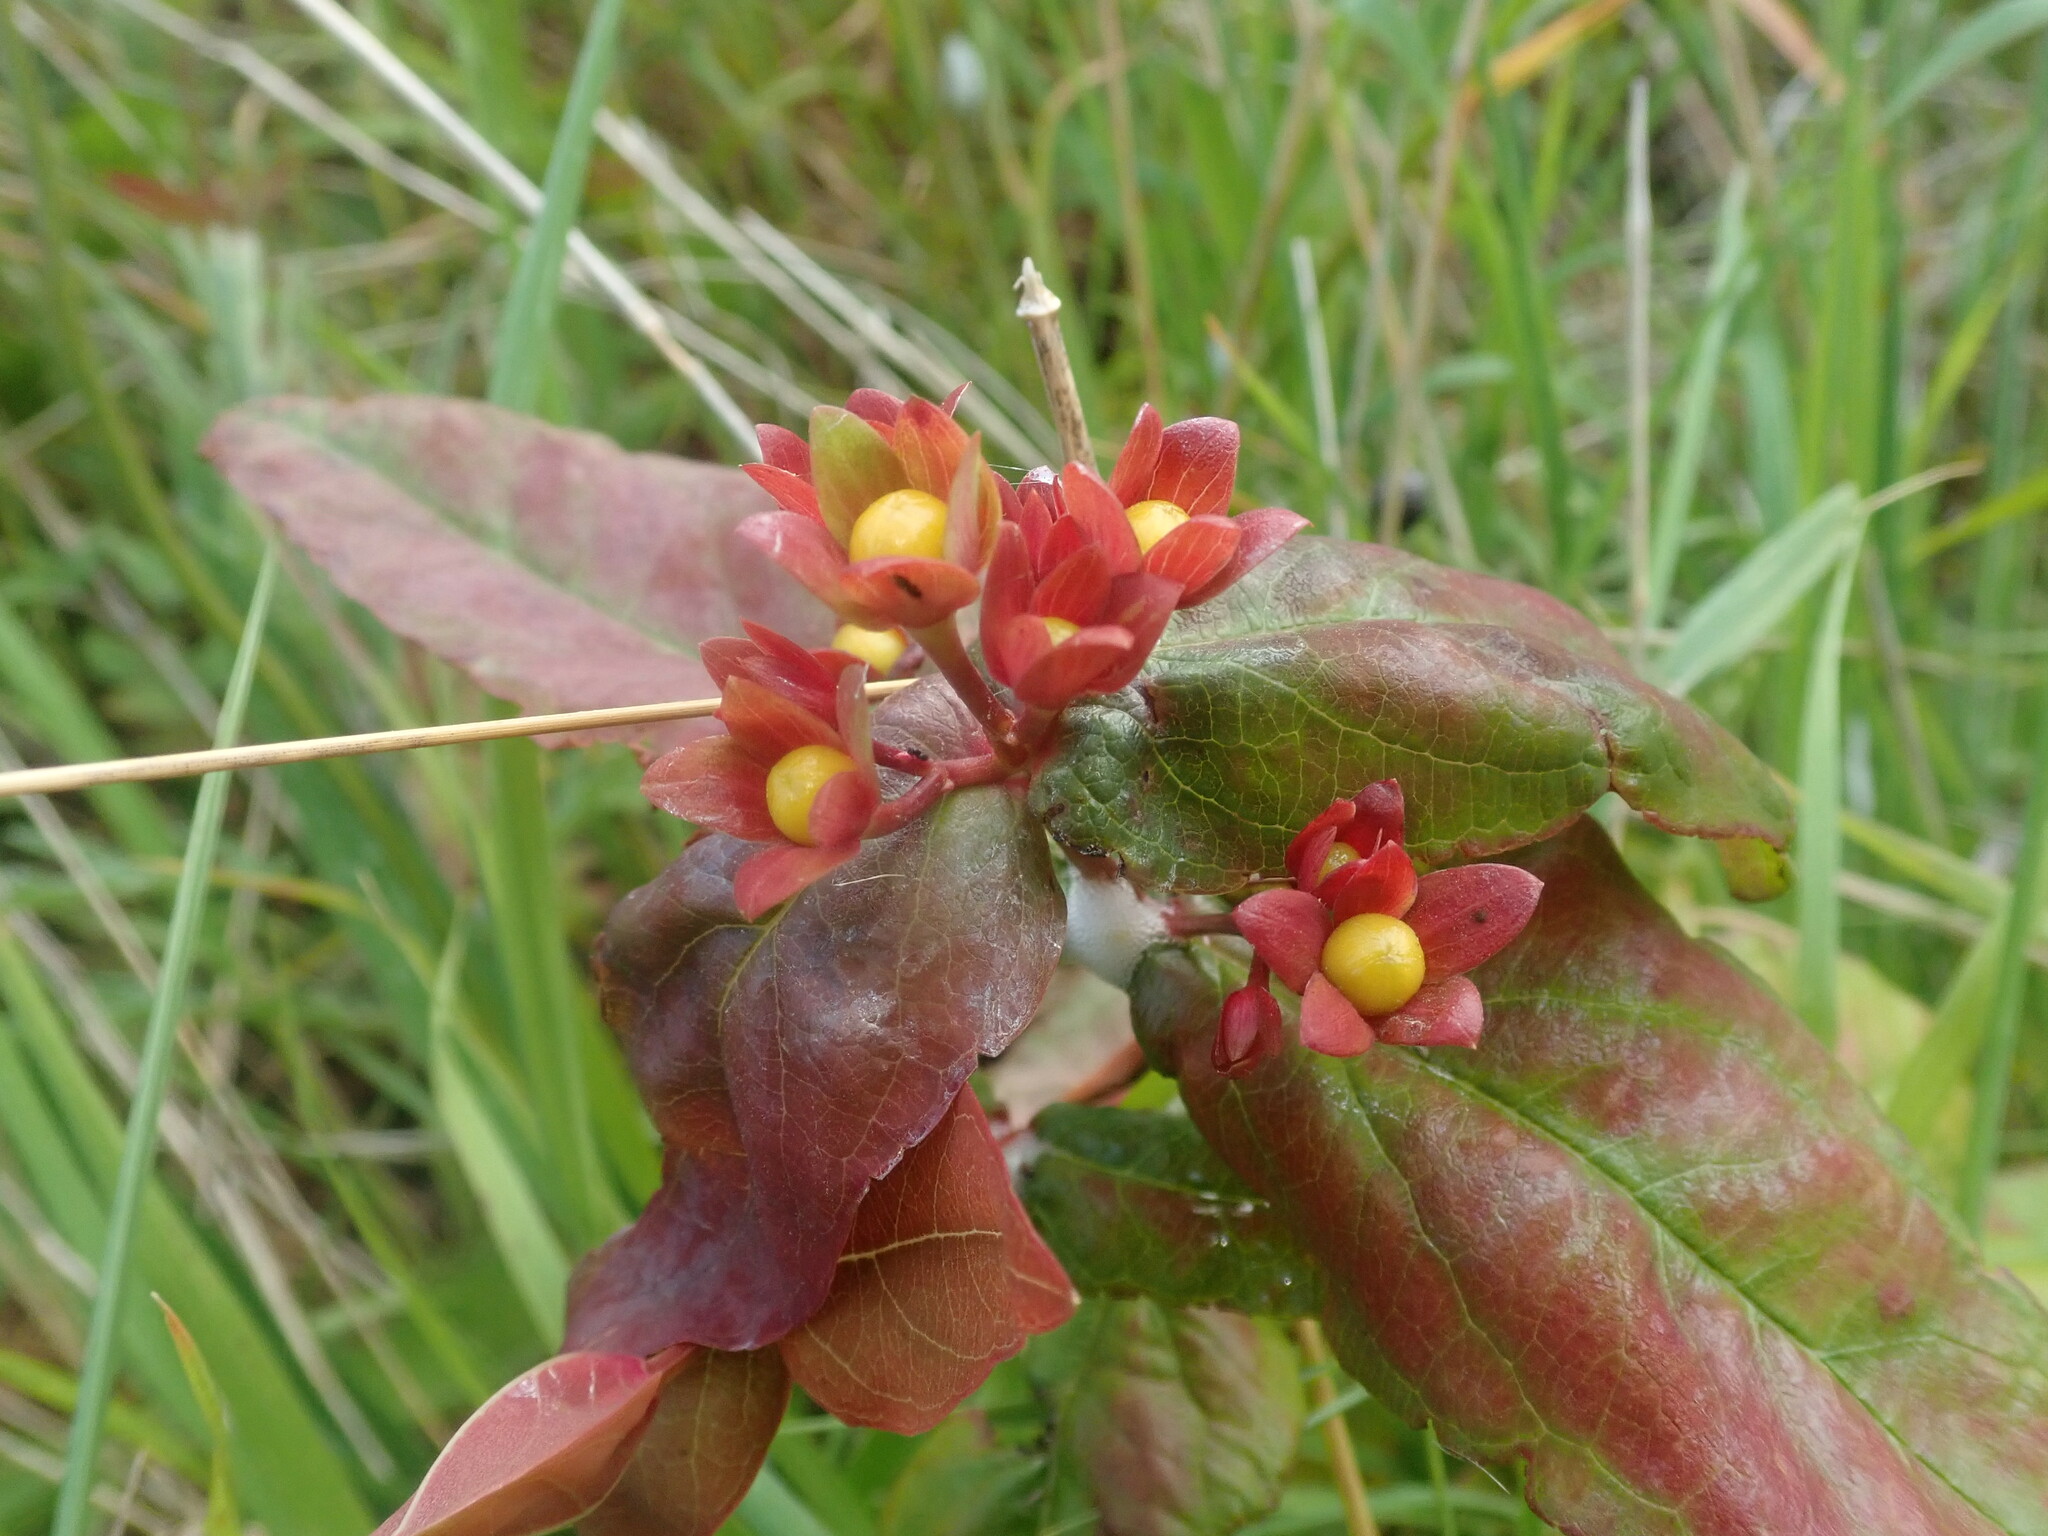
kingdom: Plantae
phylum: Tracheophyta
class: Magnoliopsida
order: Malpighiales
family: Hypericaceae
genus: Hypericum
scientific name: Hypericum androsaemum
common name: Sweet-amber
